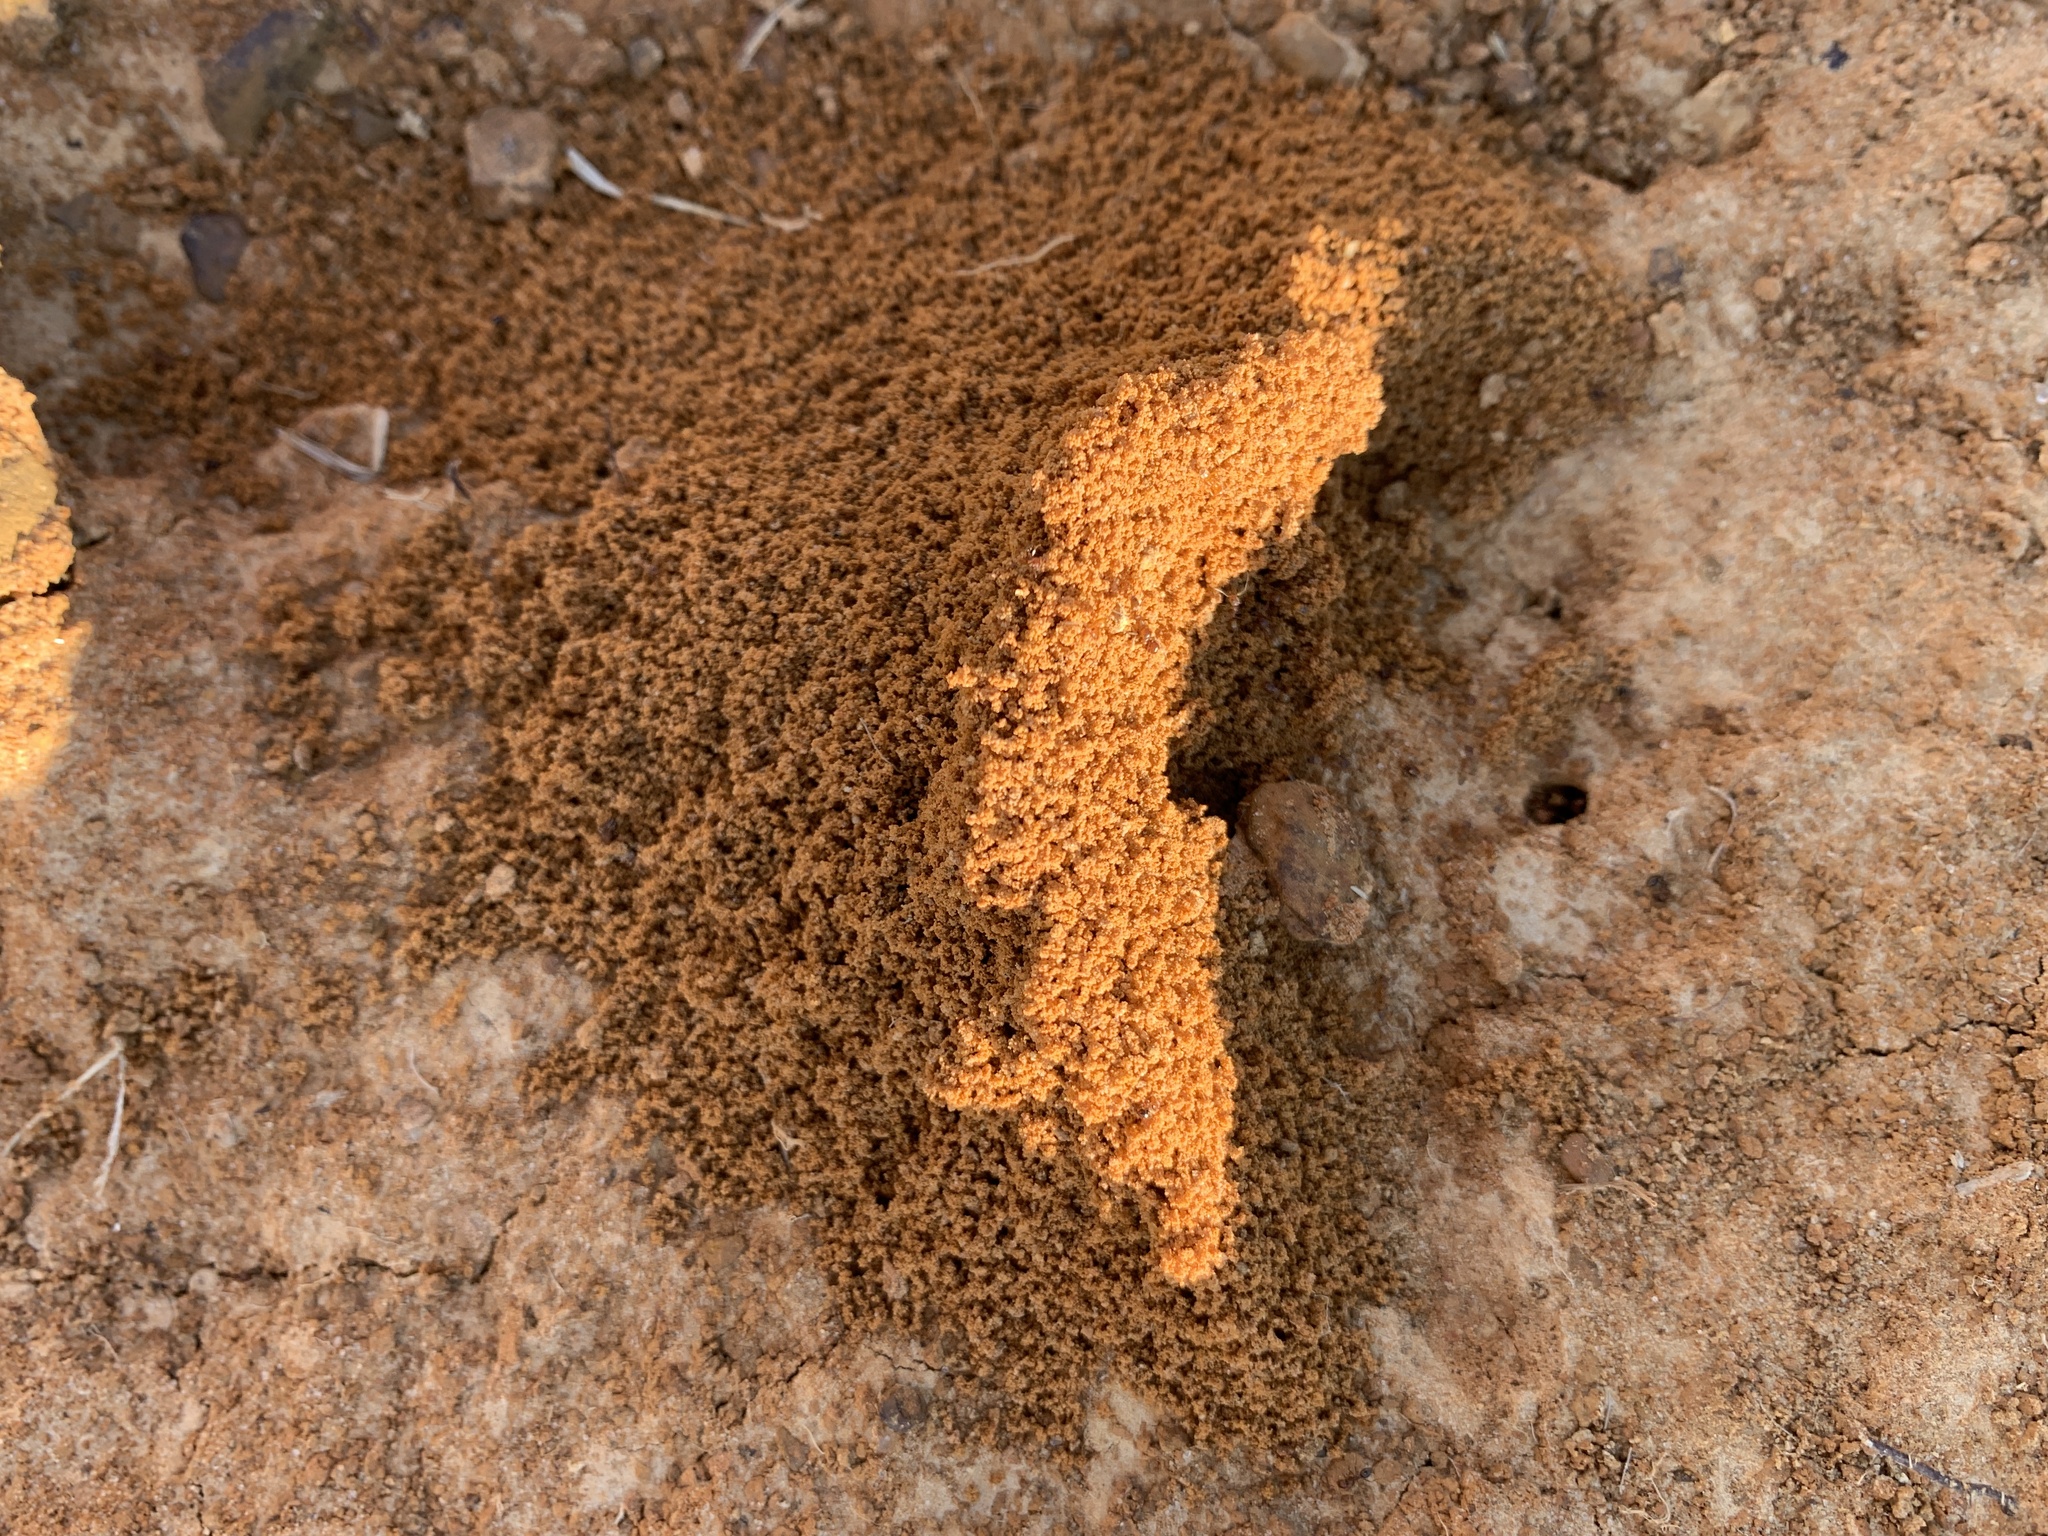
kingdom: Animalia
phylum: Arthropoda
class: Insecta
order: Hymenoptera
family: Formicidae
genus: Dorymyrmex
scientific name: Dorymyrmex flavus
